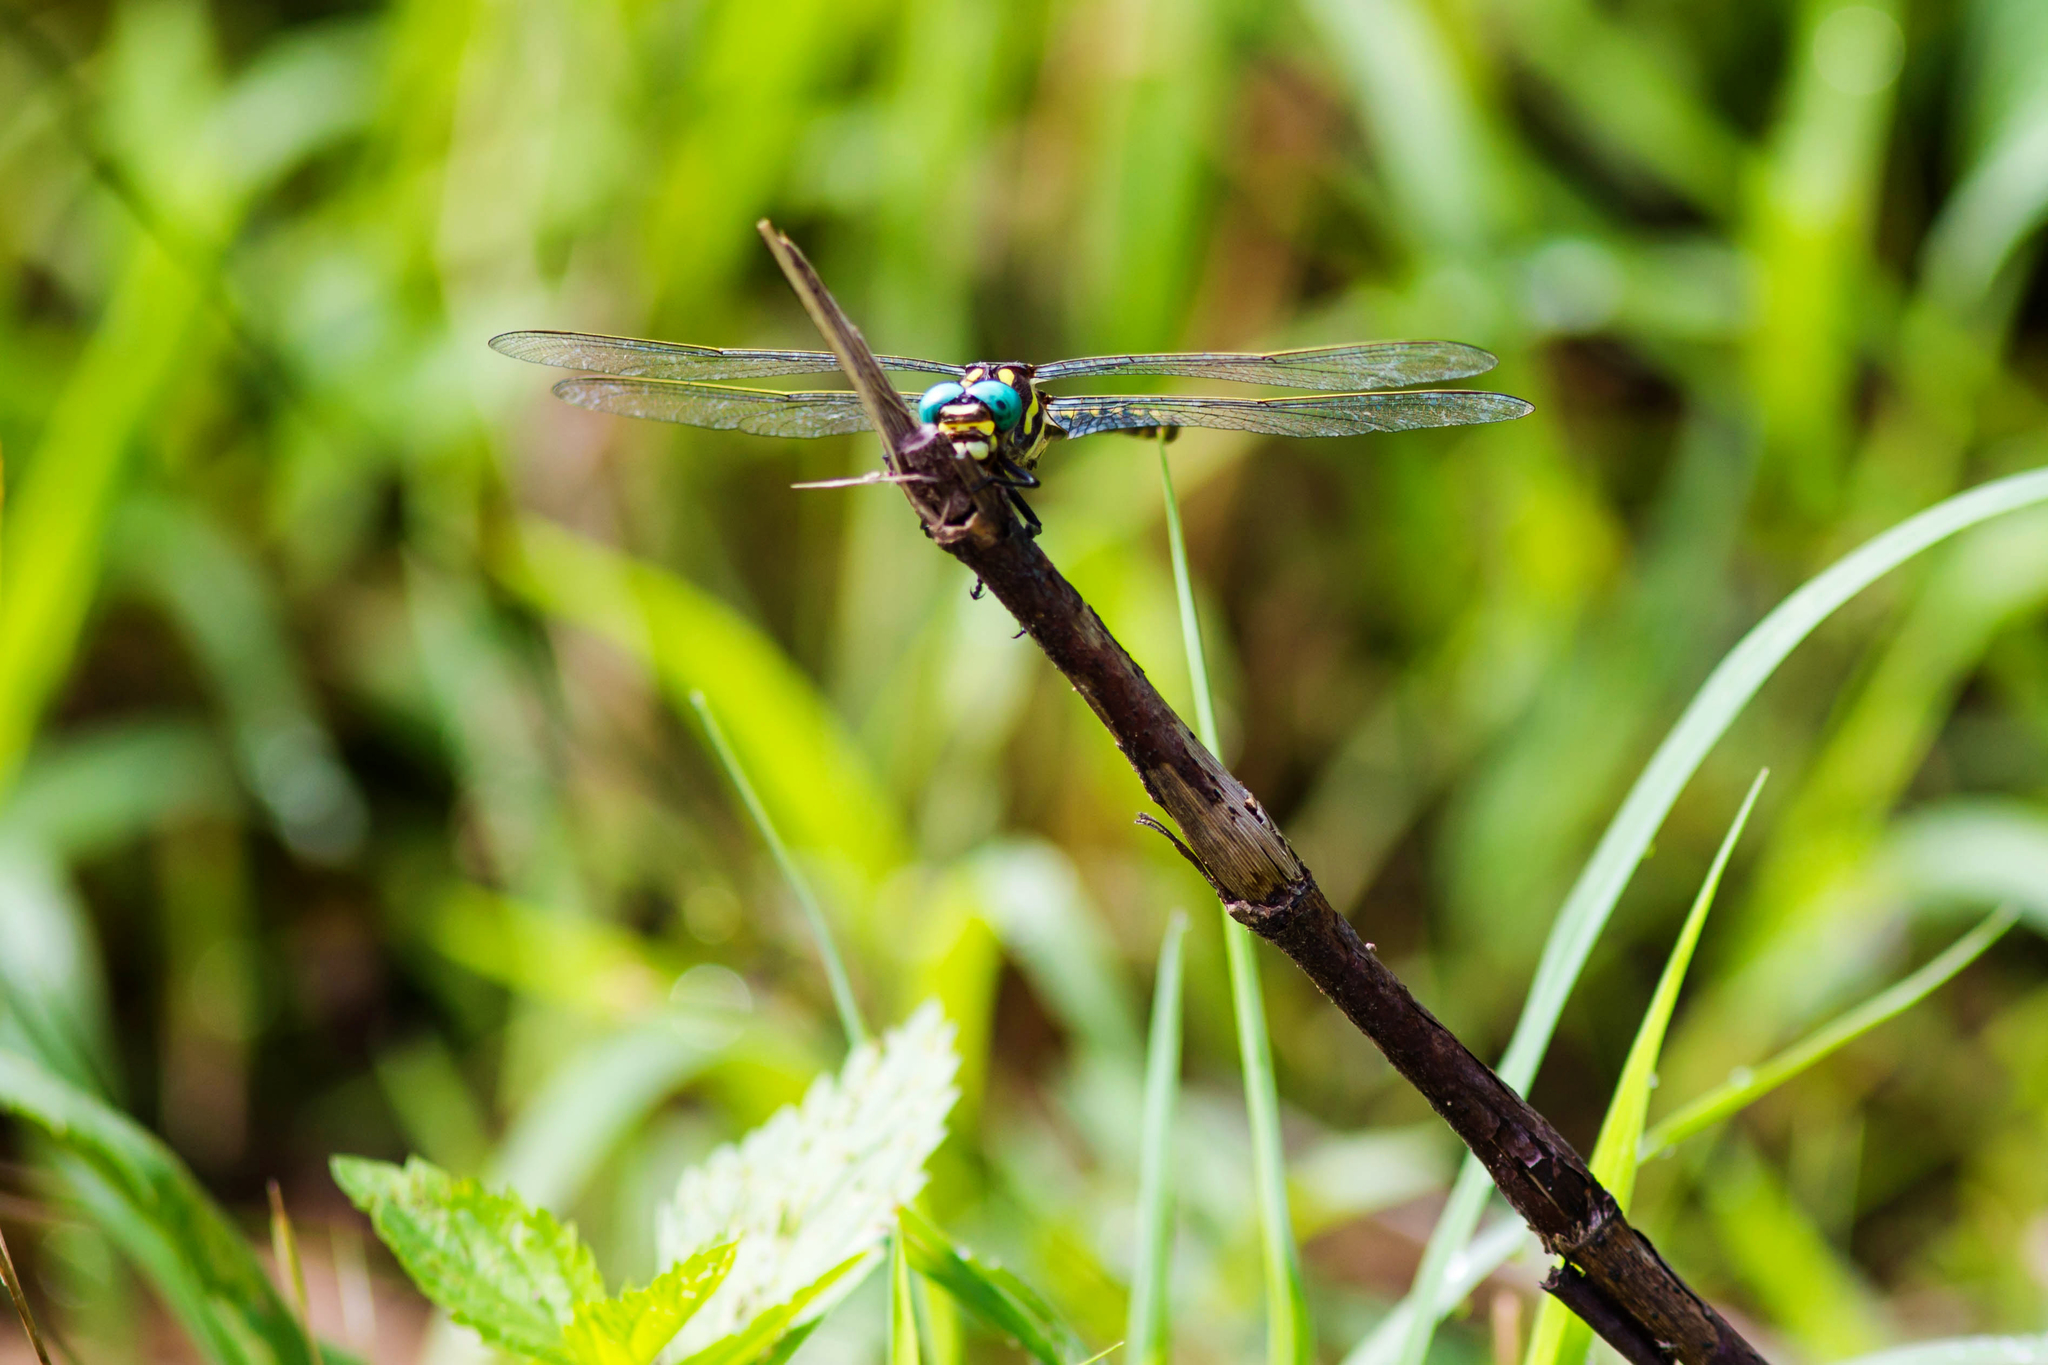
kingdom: Animalia
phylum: Arthropoda
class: Insecta
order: Odonata
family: Cordulegastridae
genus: Cordulegaster
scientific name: Cordulegaster obliqua
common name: Arrowhead spiketail
